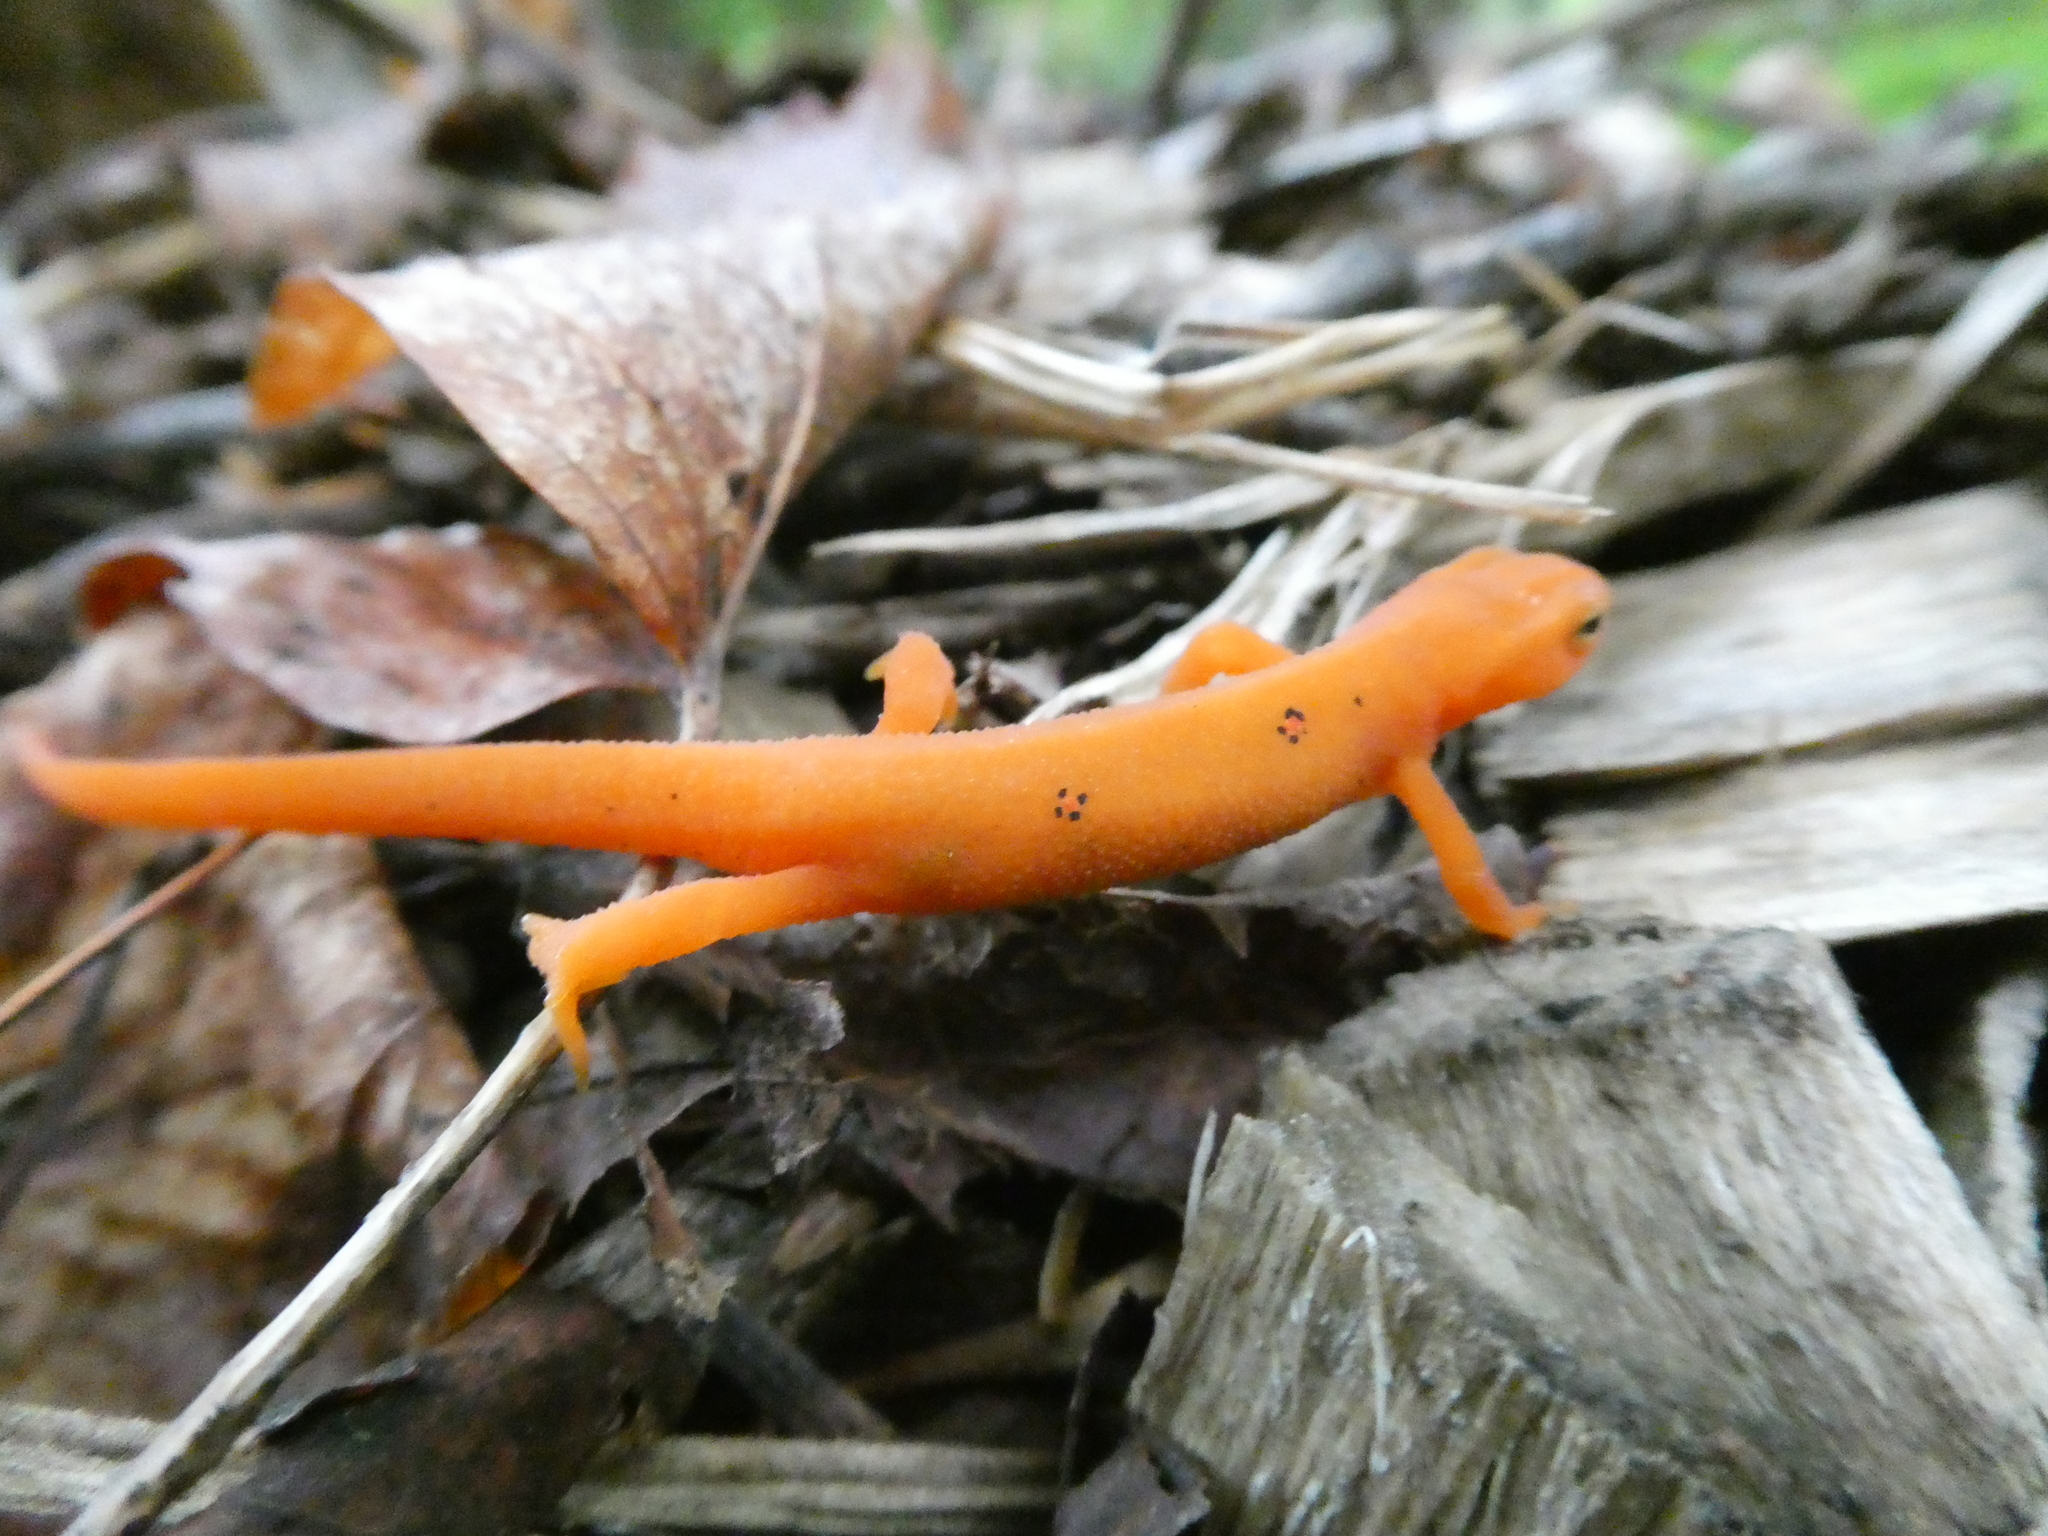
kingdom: Animalia
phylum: Chordata
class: Amphibia
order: Caudata
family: Salamandridae
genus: Notophthalmus
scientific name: Notophthalmus viridescens
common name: Eastern newt
